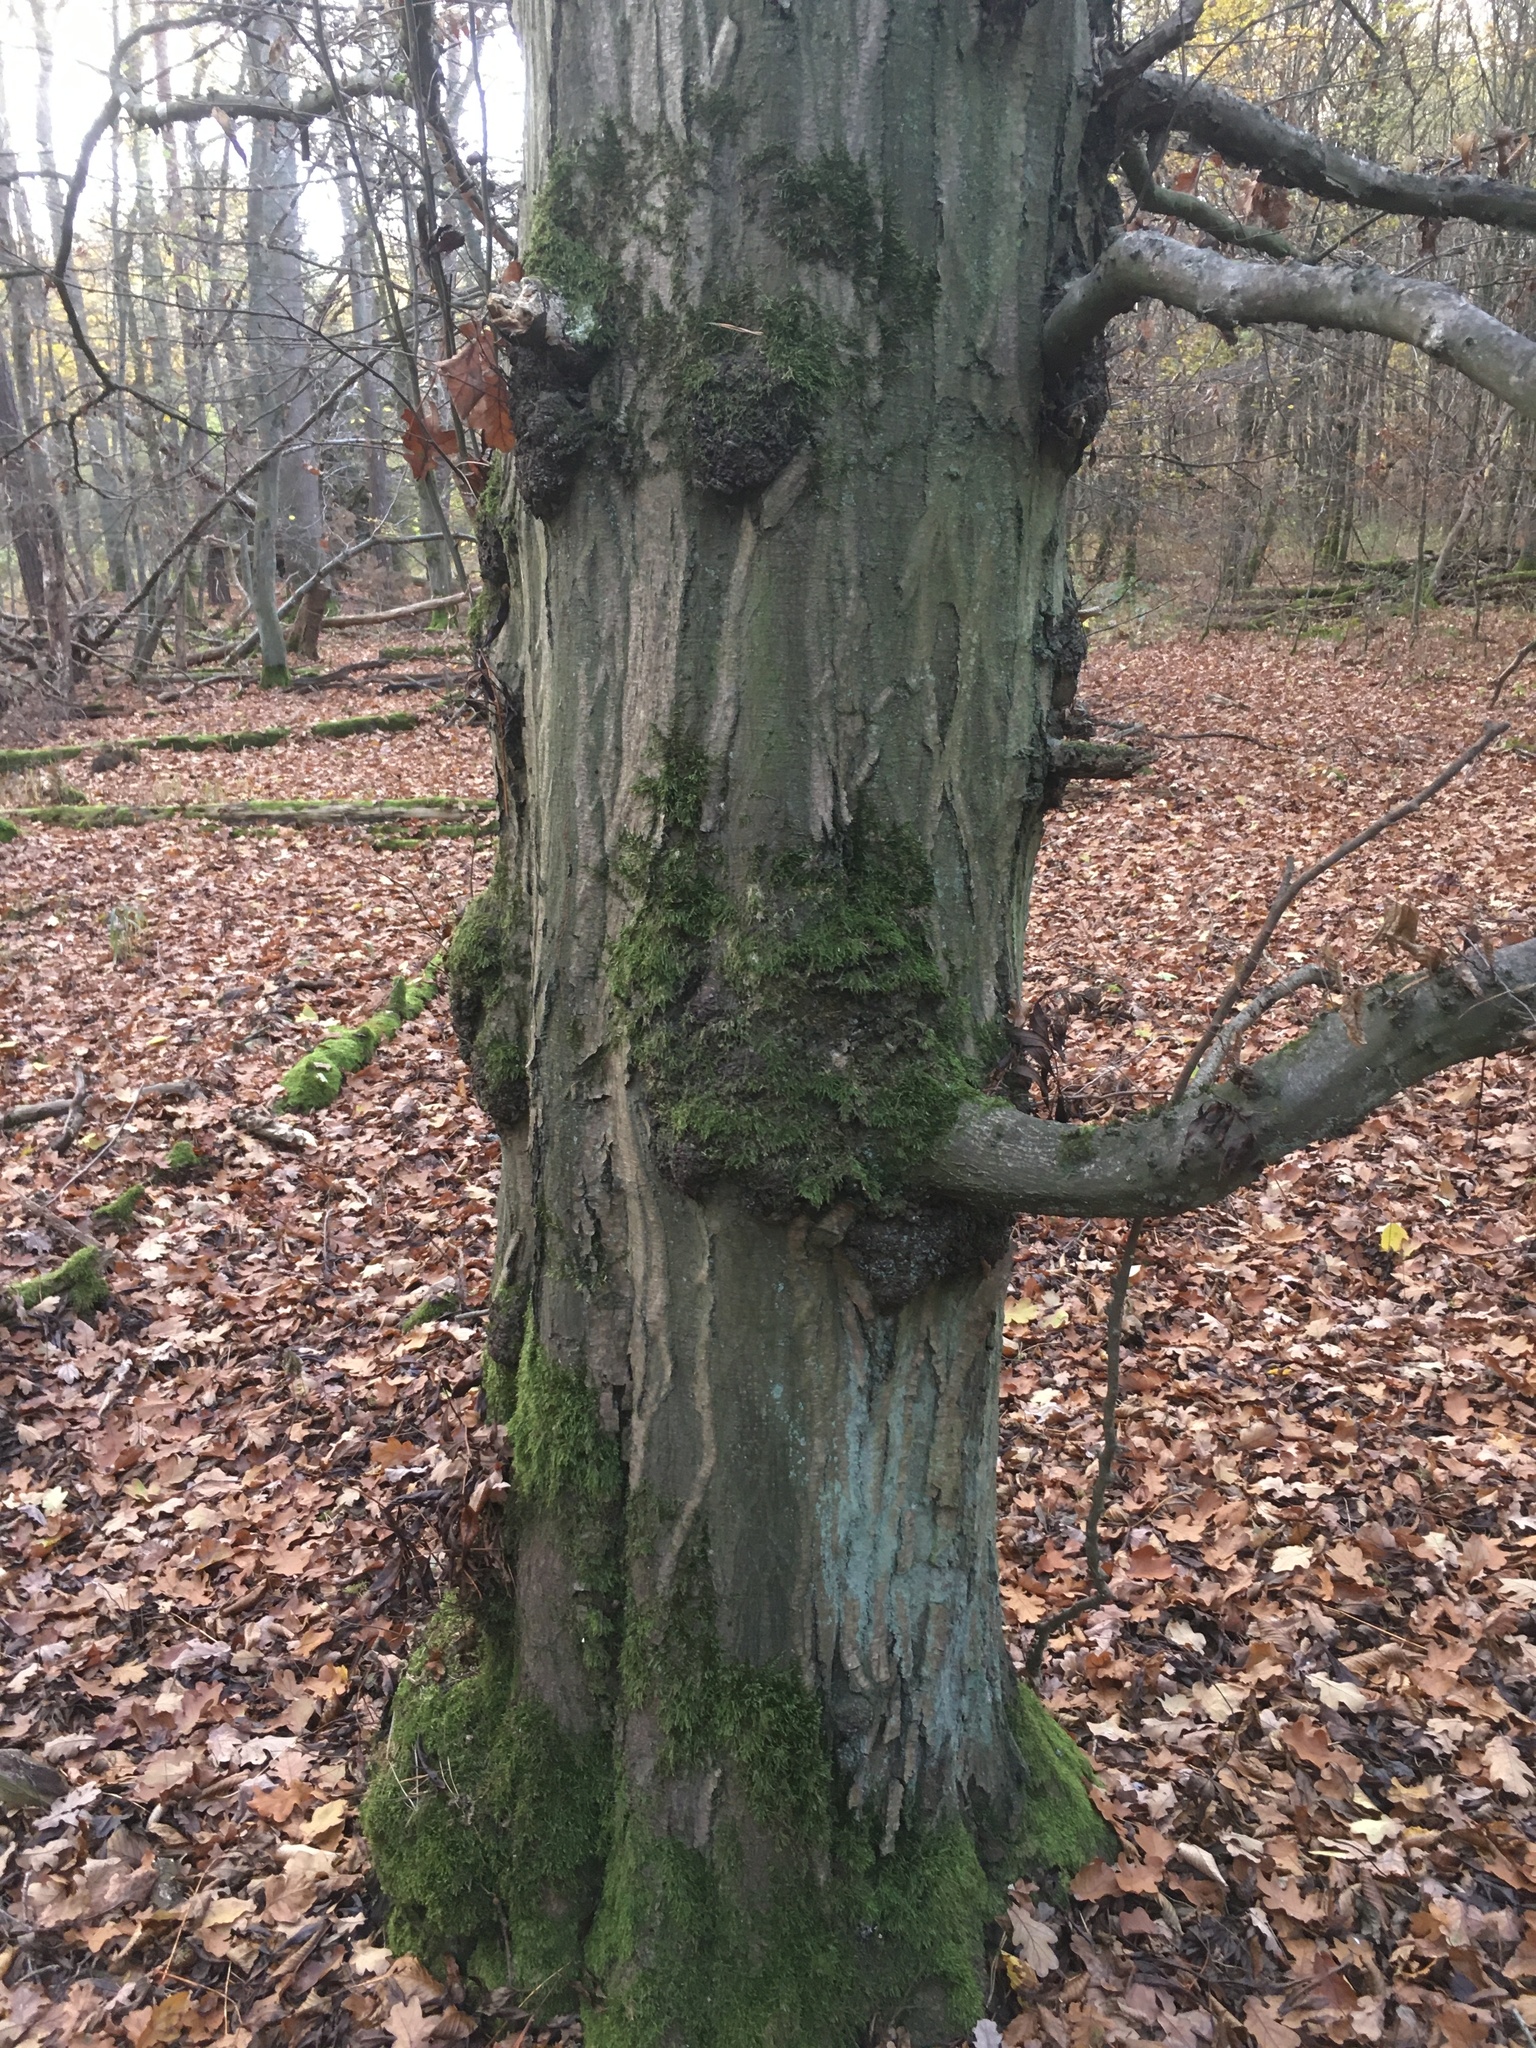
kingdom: Plantae
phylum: Tracheophyta
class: Magnoliopsida
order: Fagales
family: Betulaceae
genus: Carpinus
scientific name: Carpinus betulus
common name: Hornbeam
